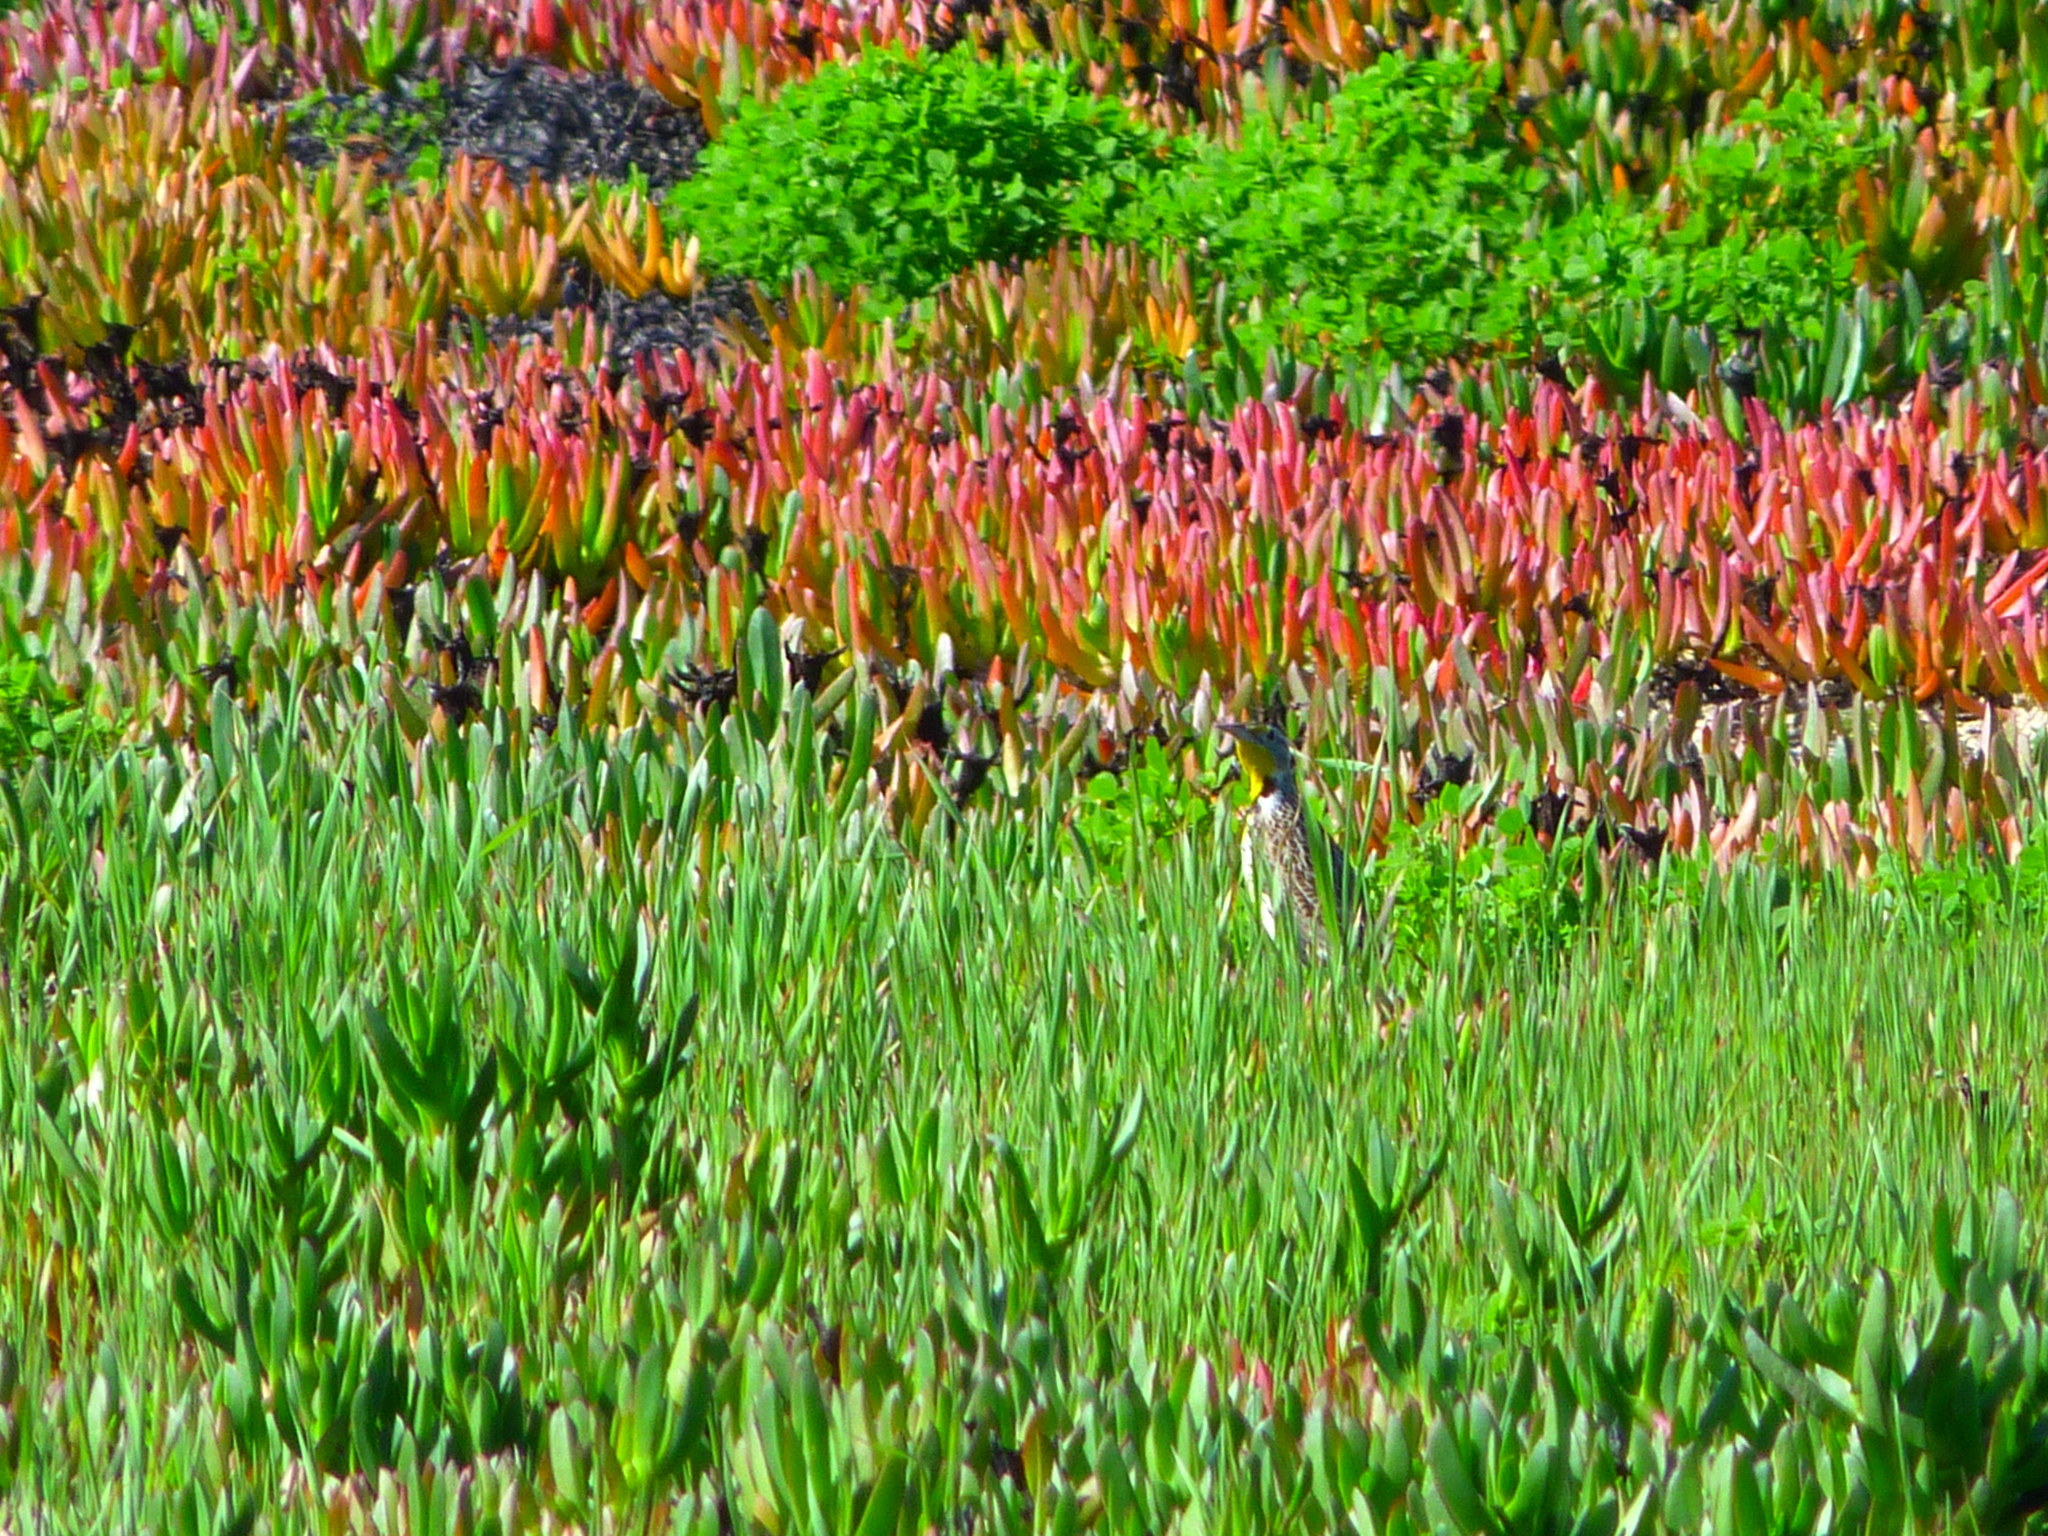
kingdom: Animalia
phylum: Chordata
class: Aves
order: Passeriformes
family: Icteridae
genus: Sturnella
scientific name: Sturnella neglecta
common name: Western meadowlark
